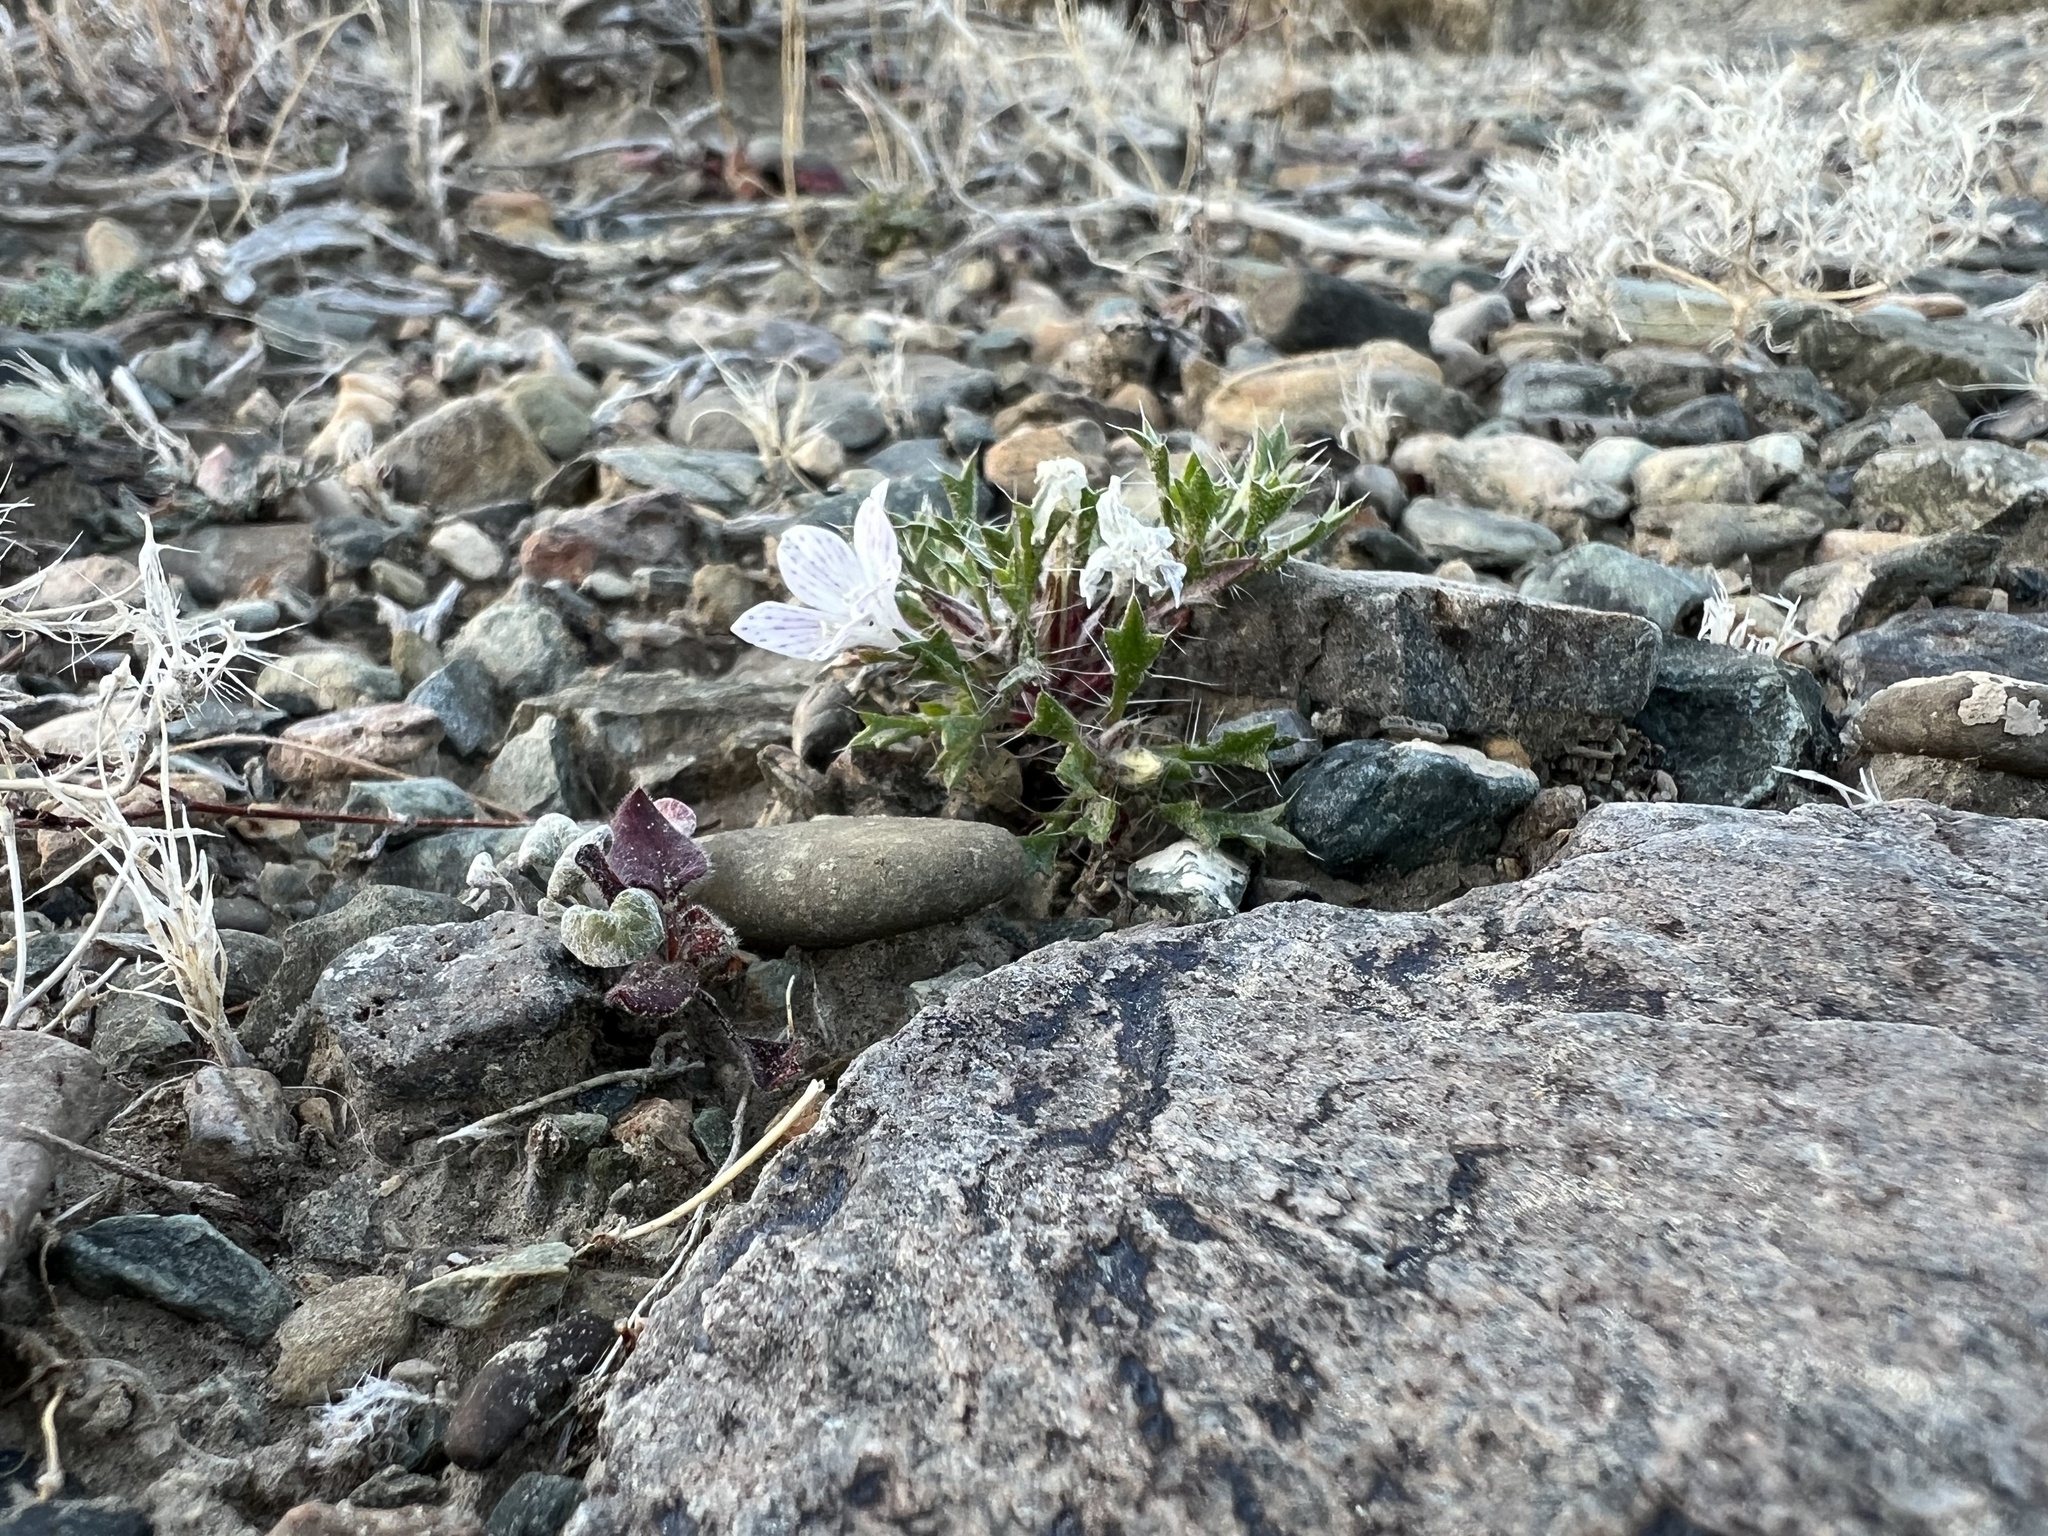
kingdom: Plantae
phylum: Tracheophyta
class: Magnoliopsida
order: Ericales
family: Polemoniaceae
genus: Langloisia
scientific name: Langloisia setosissima
